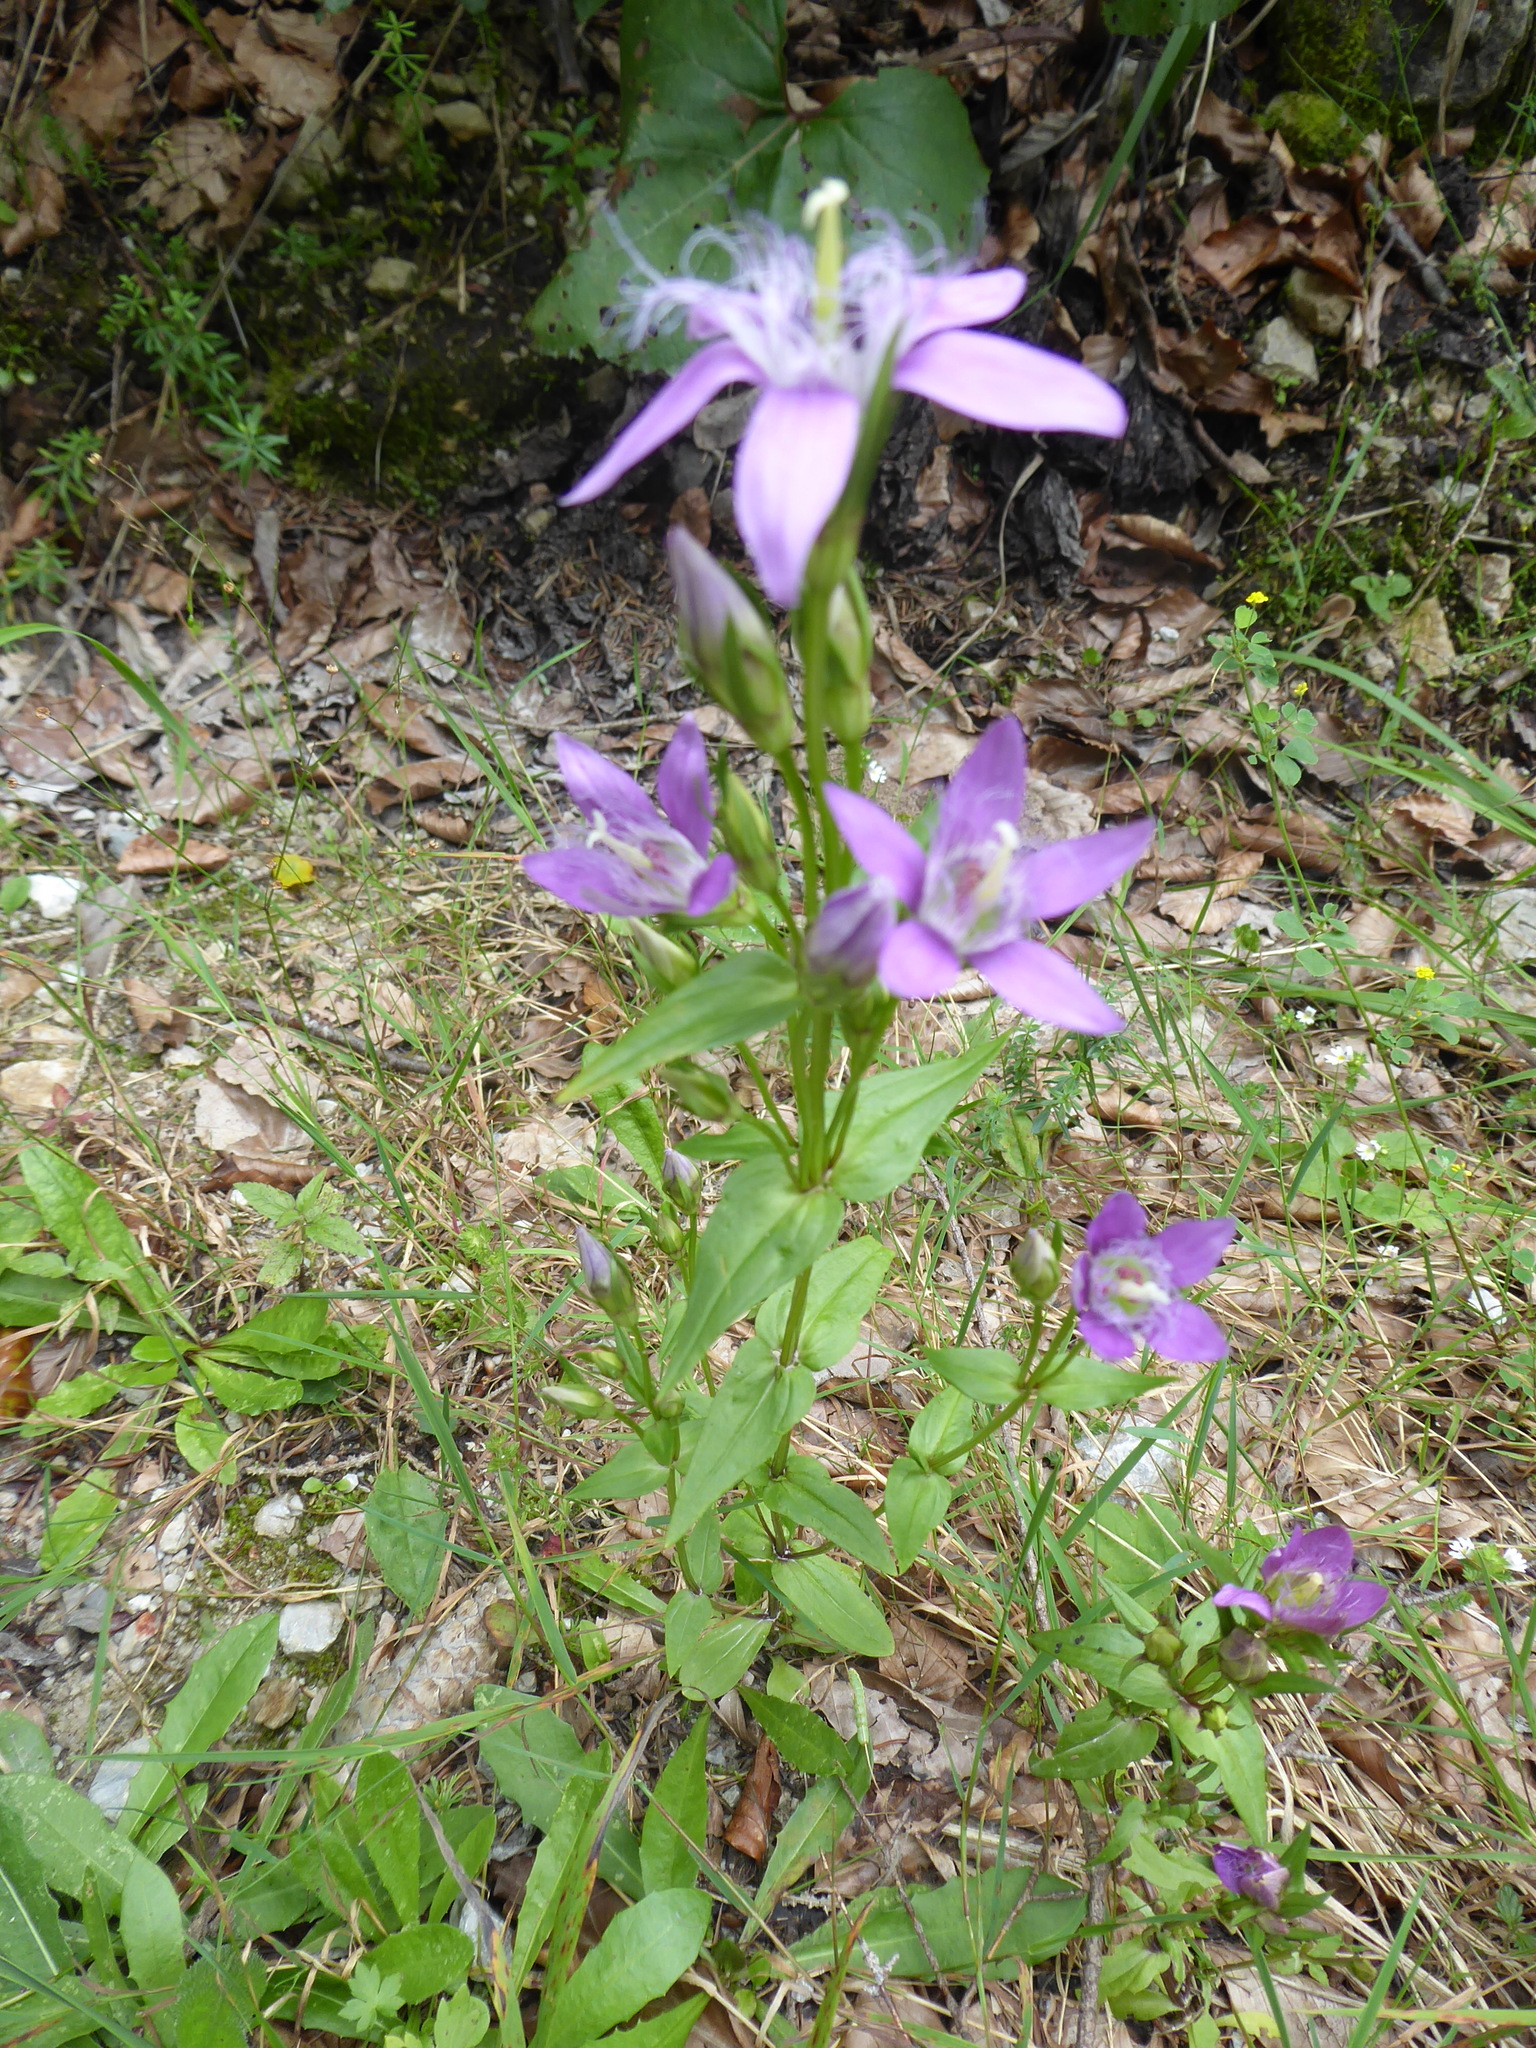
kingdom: Plantae
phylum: Tracheophyta
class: Magnoliopsida
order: Gentianales
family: Gentianaceae
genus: Gentianella
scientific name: Gentianella austriaca
